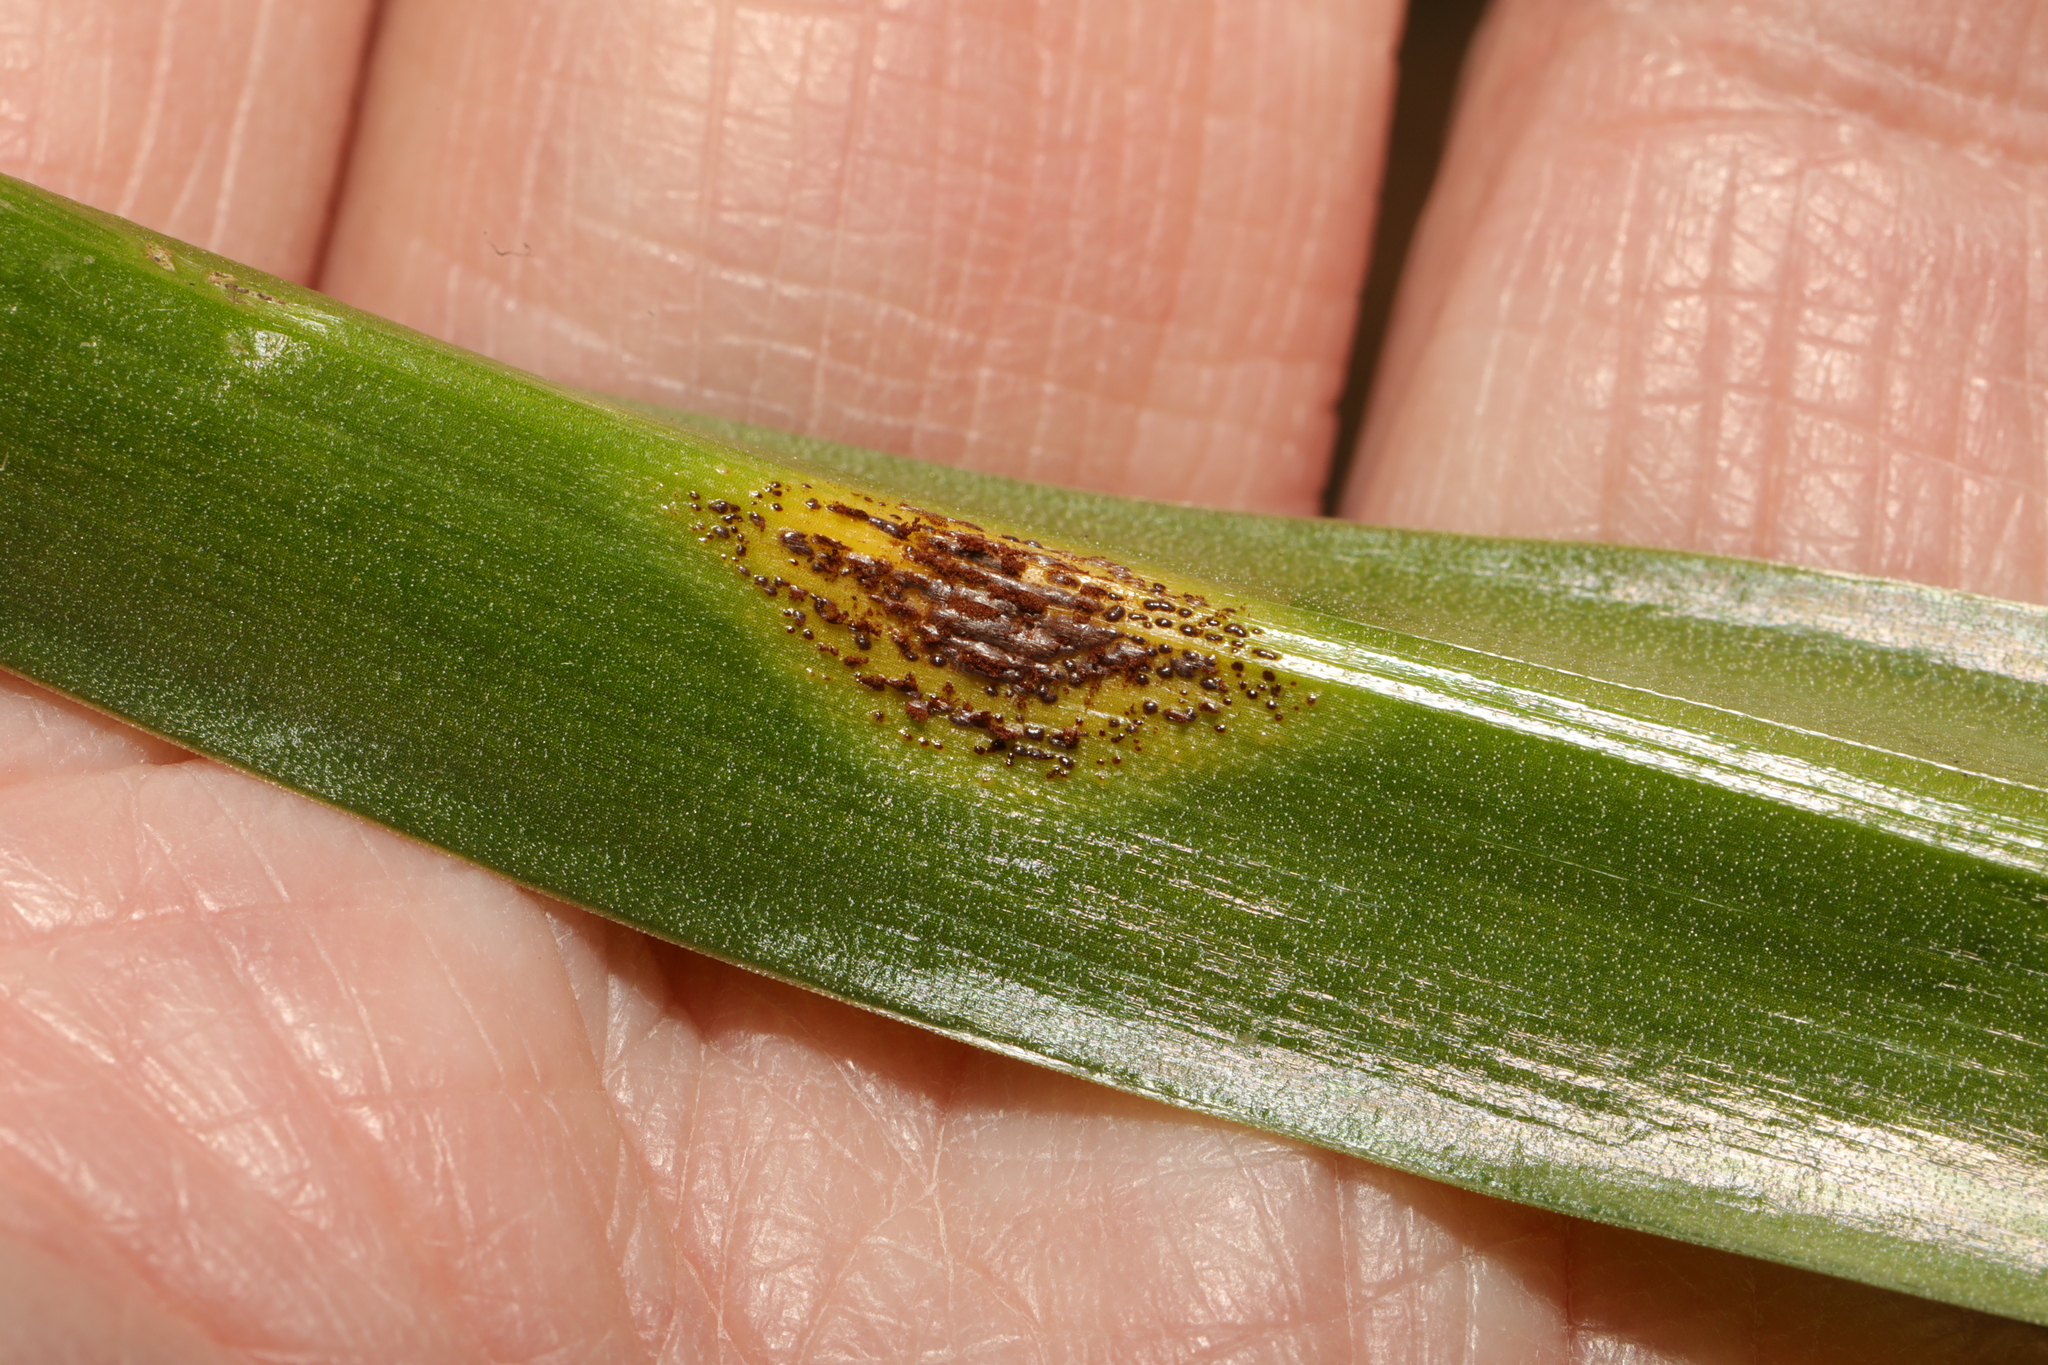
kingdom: Fungi
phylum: Basidiomycota
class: Pucciniomycetes
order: Pucciniales
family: Pucciniaceae
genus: Uromyces
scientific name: Uromyces hyacinthi
